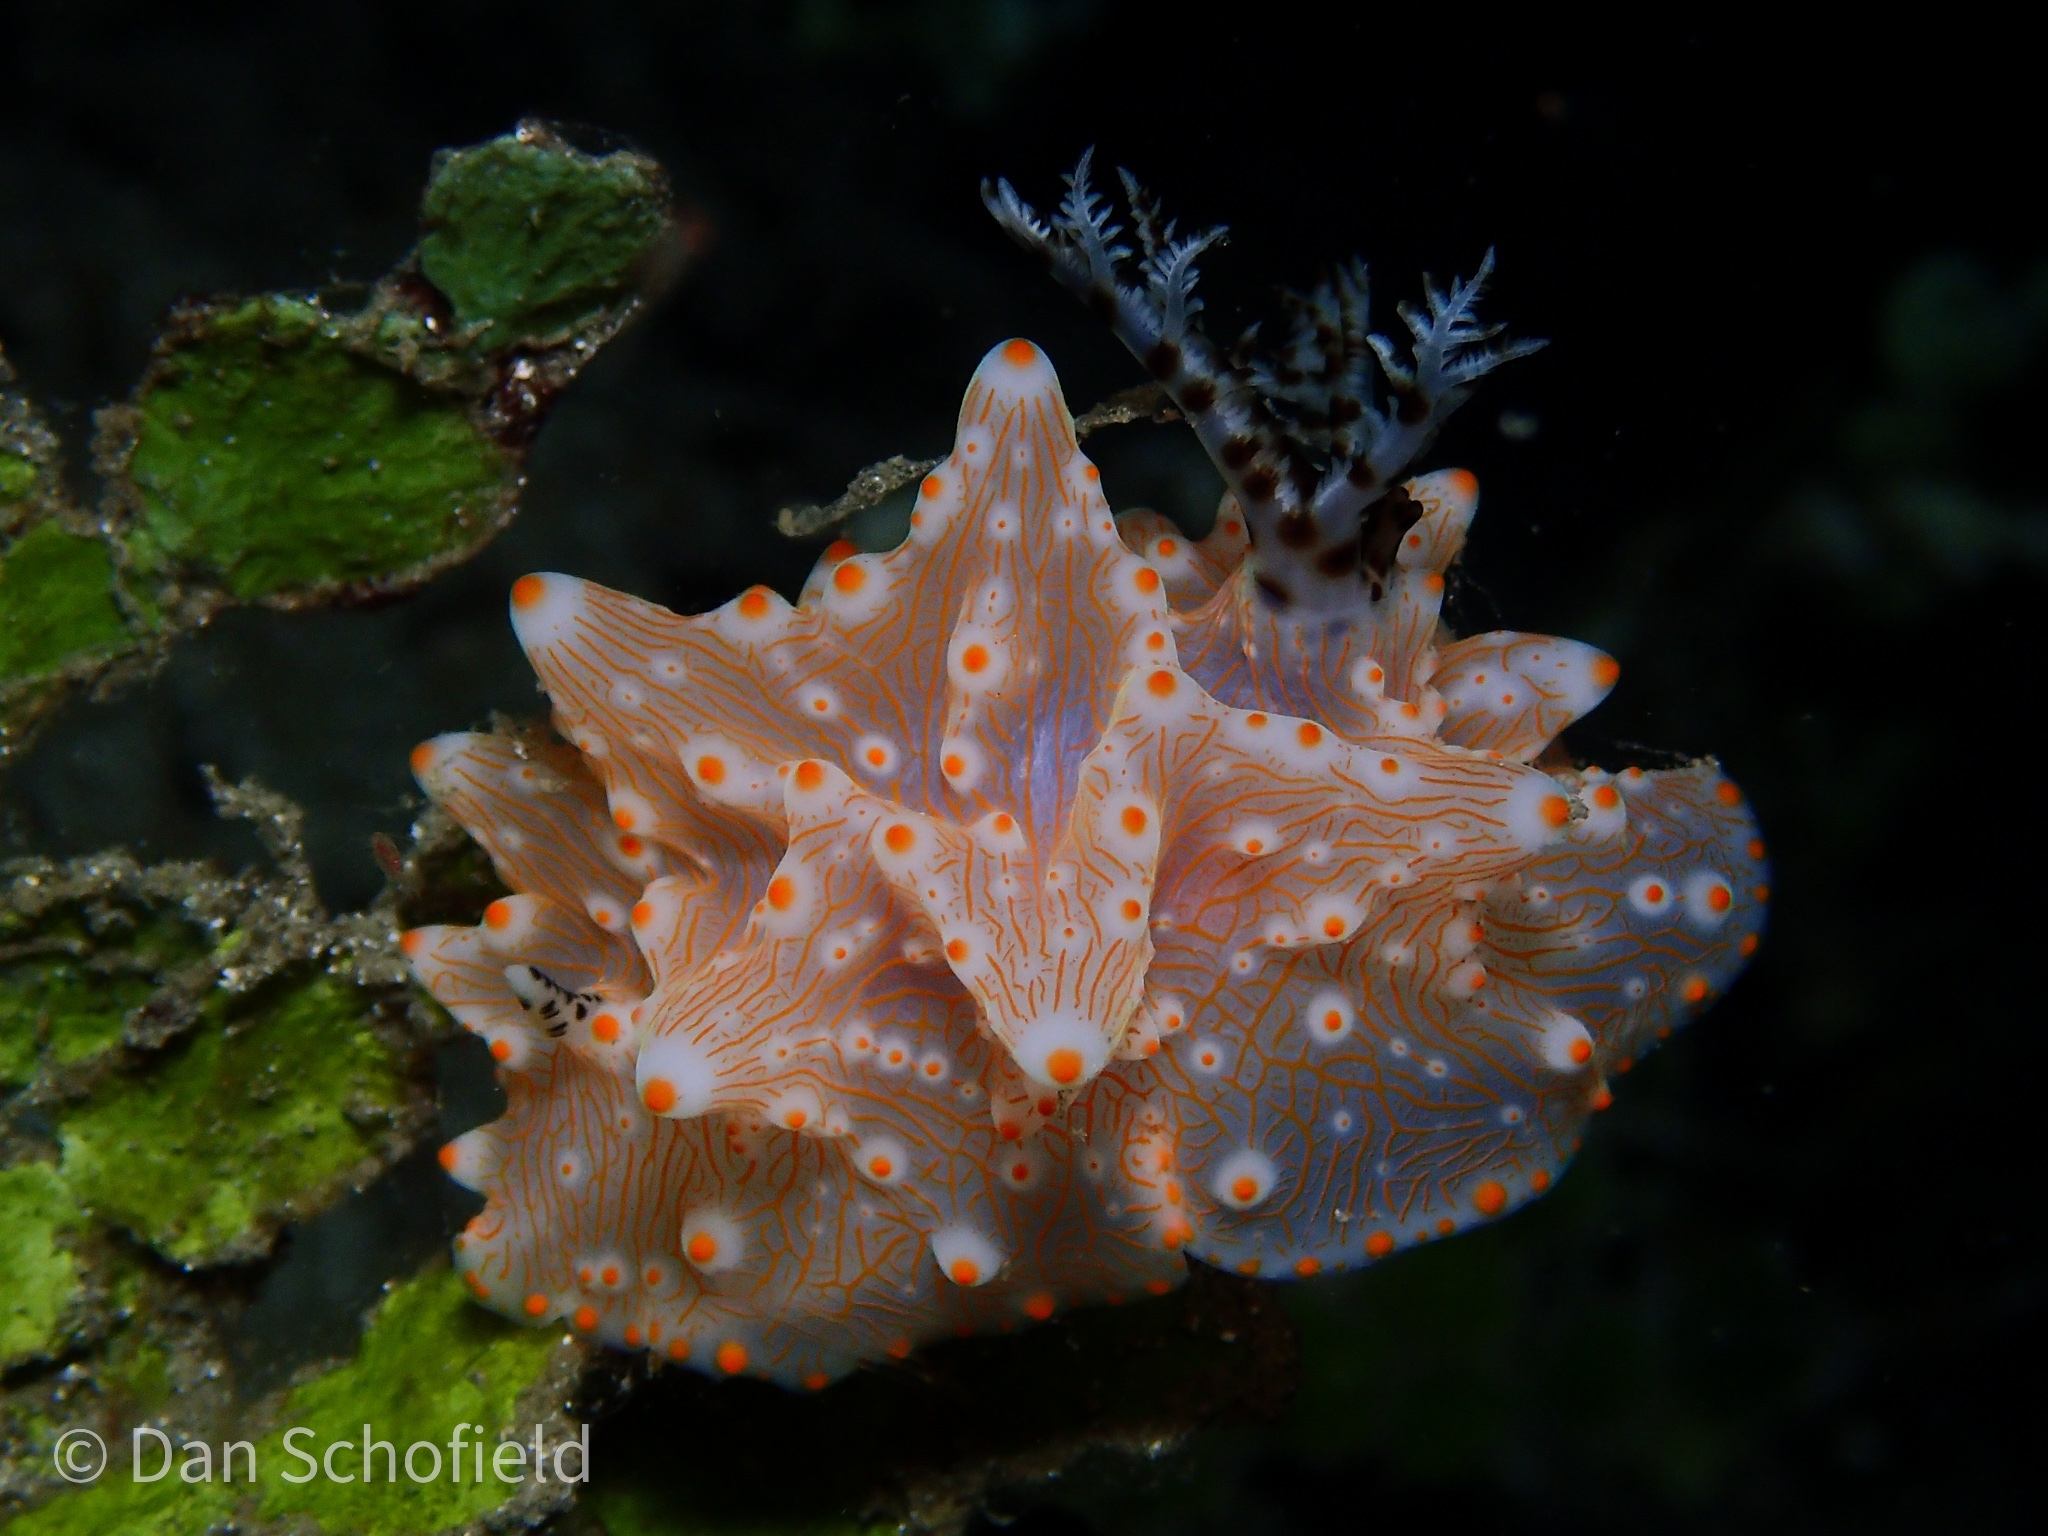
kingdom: Animalia
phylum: Mollusca
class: Gastropoda
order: Nudibranchia
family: Discodorididae
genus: Halgerda
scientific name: Halgerda batangas
